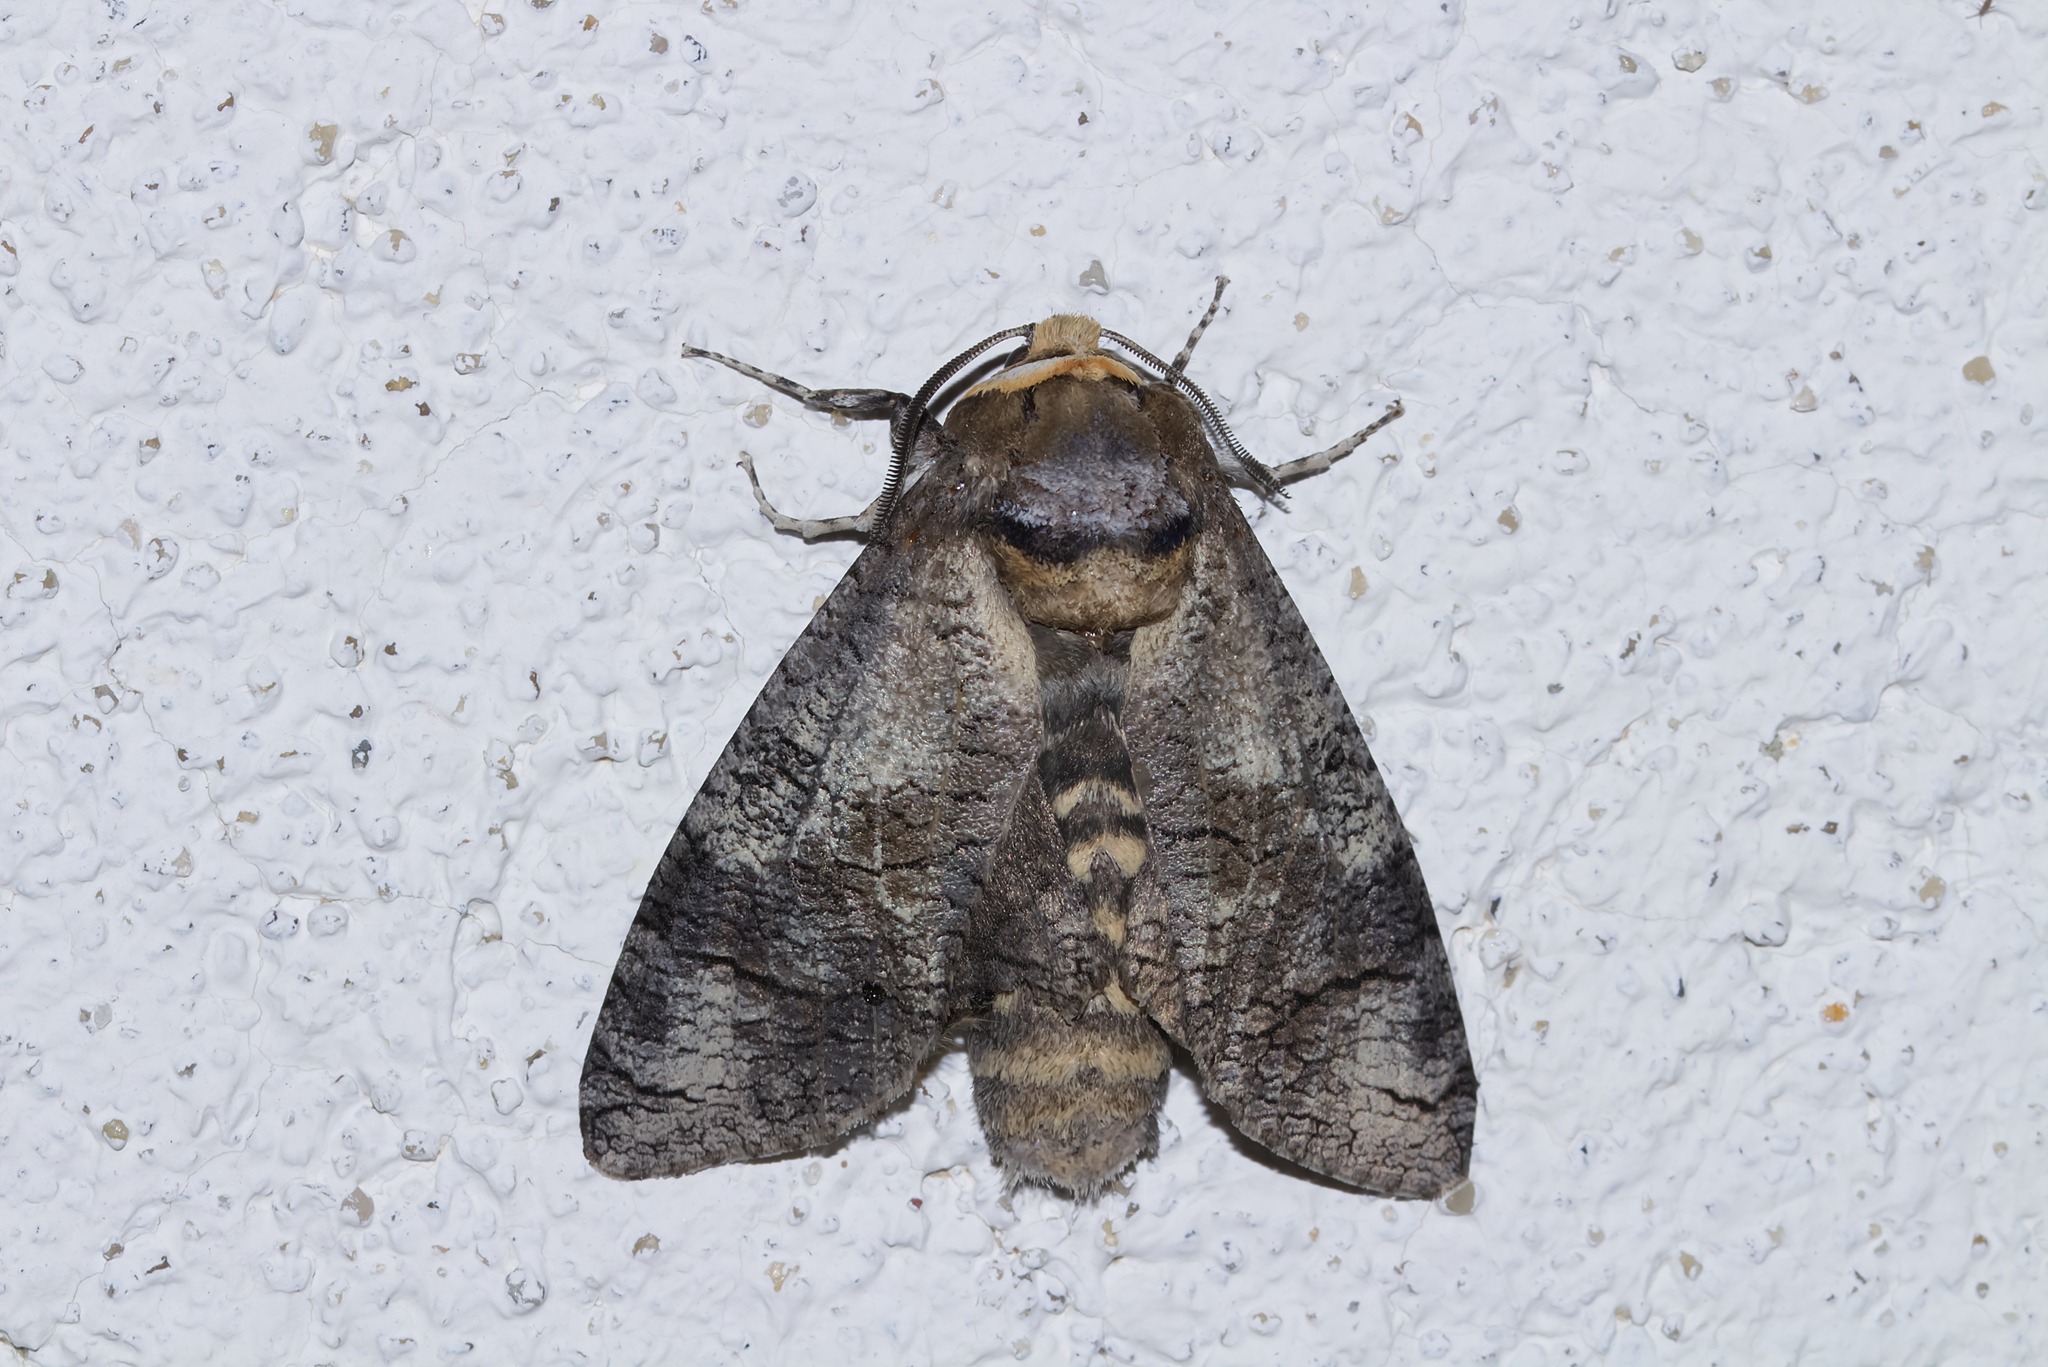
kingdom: Animalia
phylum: Arthropoda
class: Insecta
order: Lepidoptera
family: Cossidae
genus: Cossus
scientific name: Cossus cossus
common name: Goat moth
